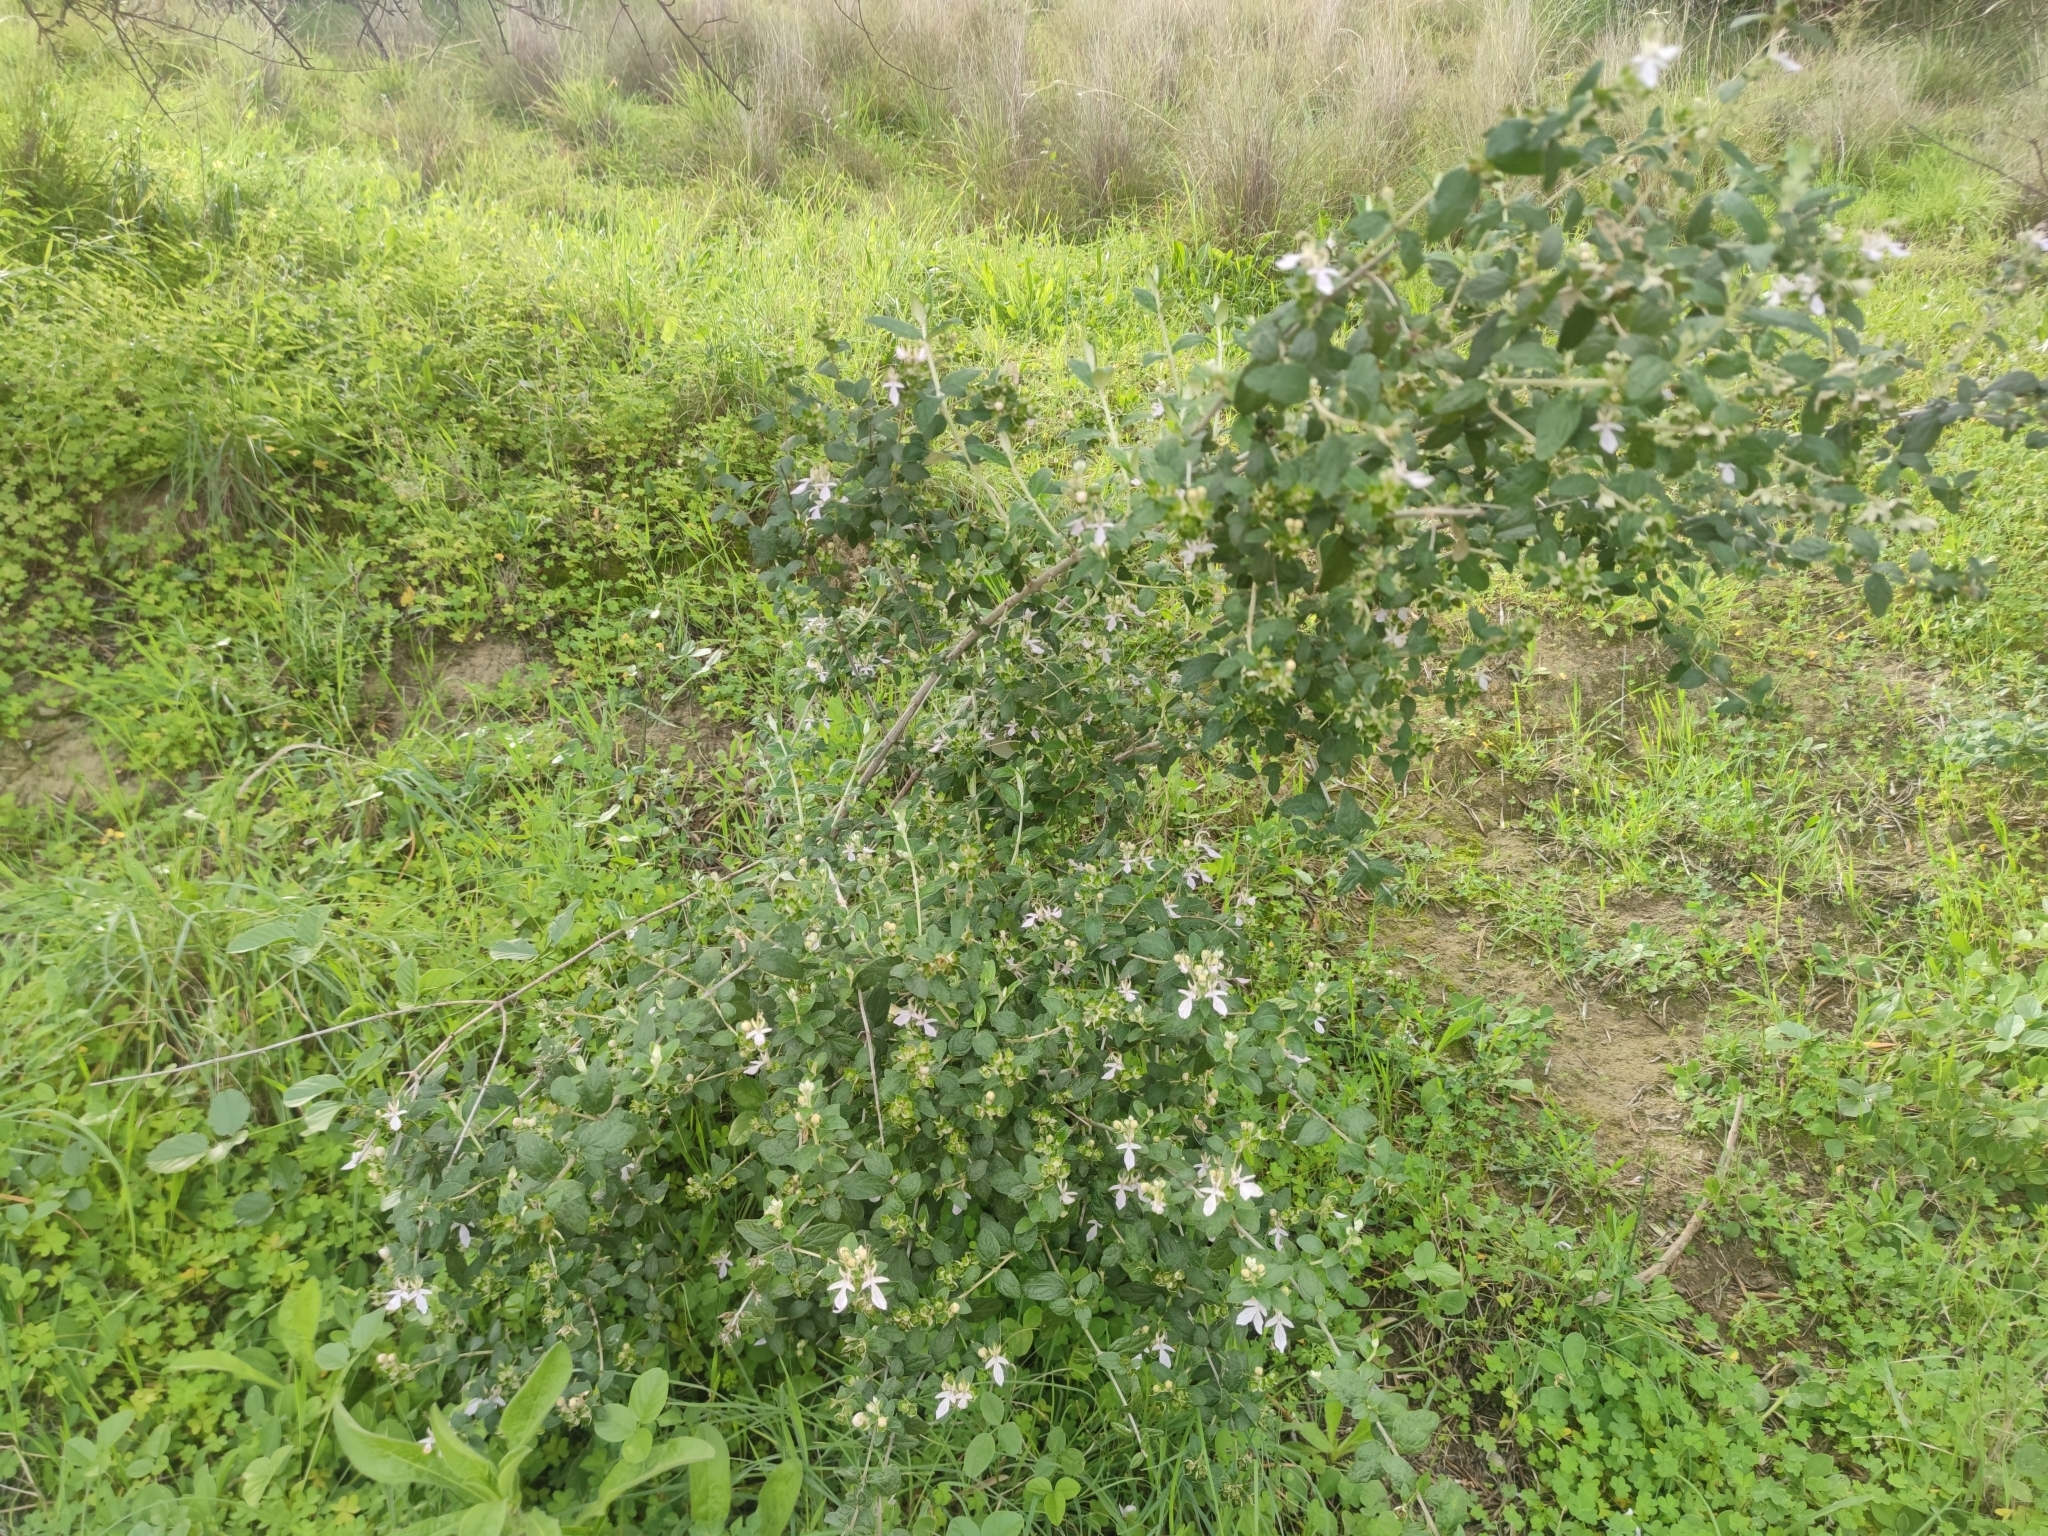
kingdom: Plantae
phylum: Tracheophyta
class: Magnoliopsida
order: Lamiales
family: Lamiaceae
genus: Teucrium
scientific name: Teucrium fruticans
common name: Shrubby germander
